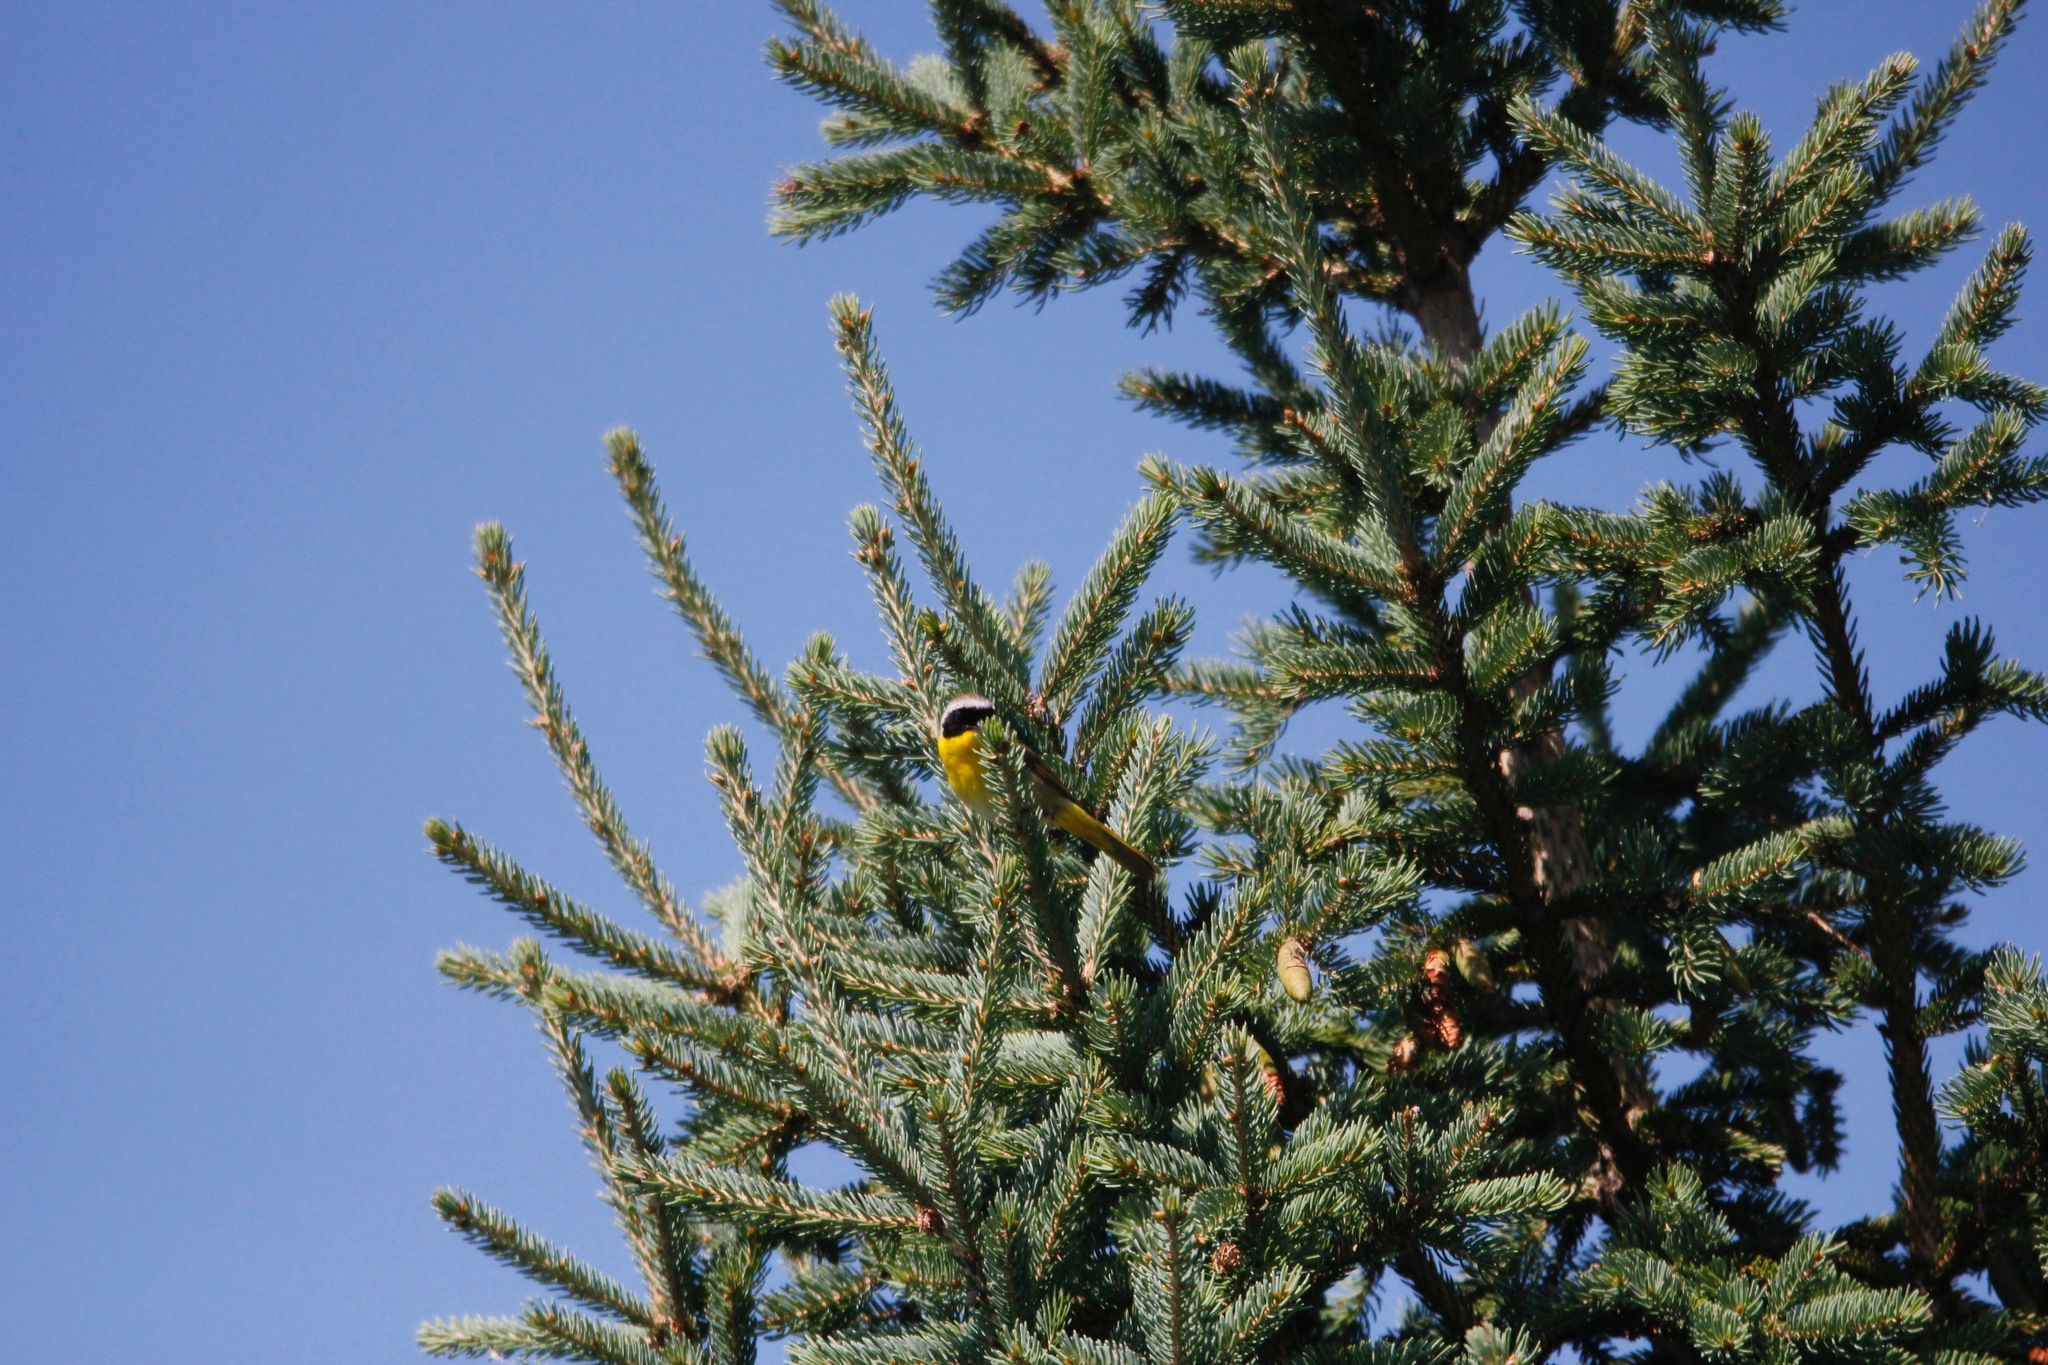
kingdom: Animalia
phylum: Chordata
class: Aves
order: Passeriformes
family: Parulidae
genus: Geothlypis
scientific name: Geothlypis trichas
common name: Common yellowthroat
